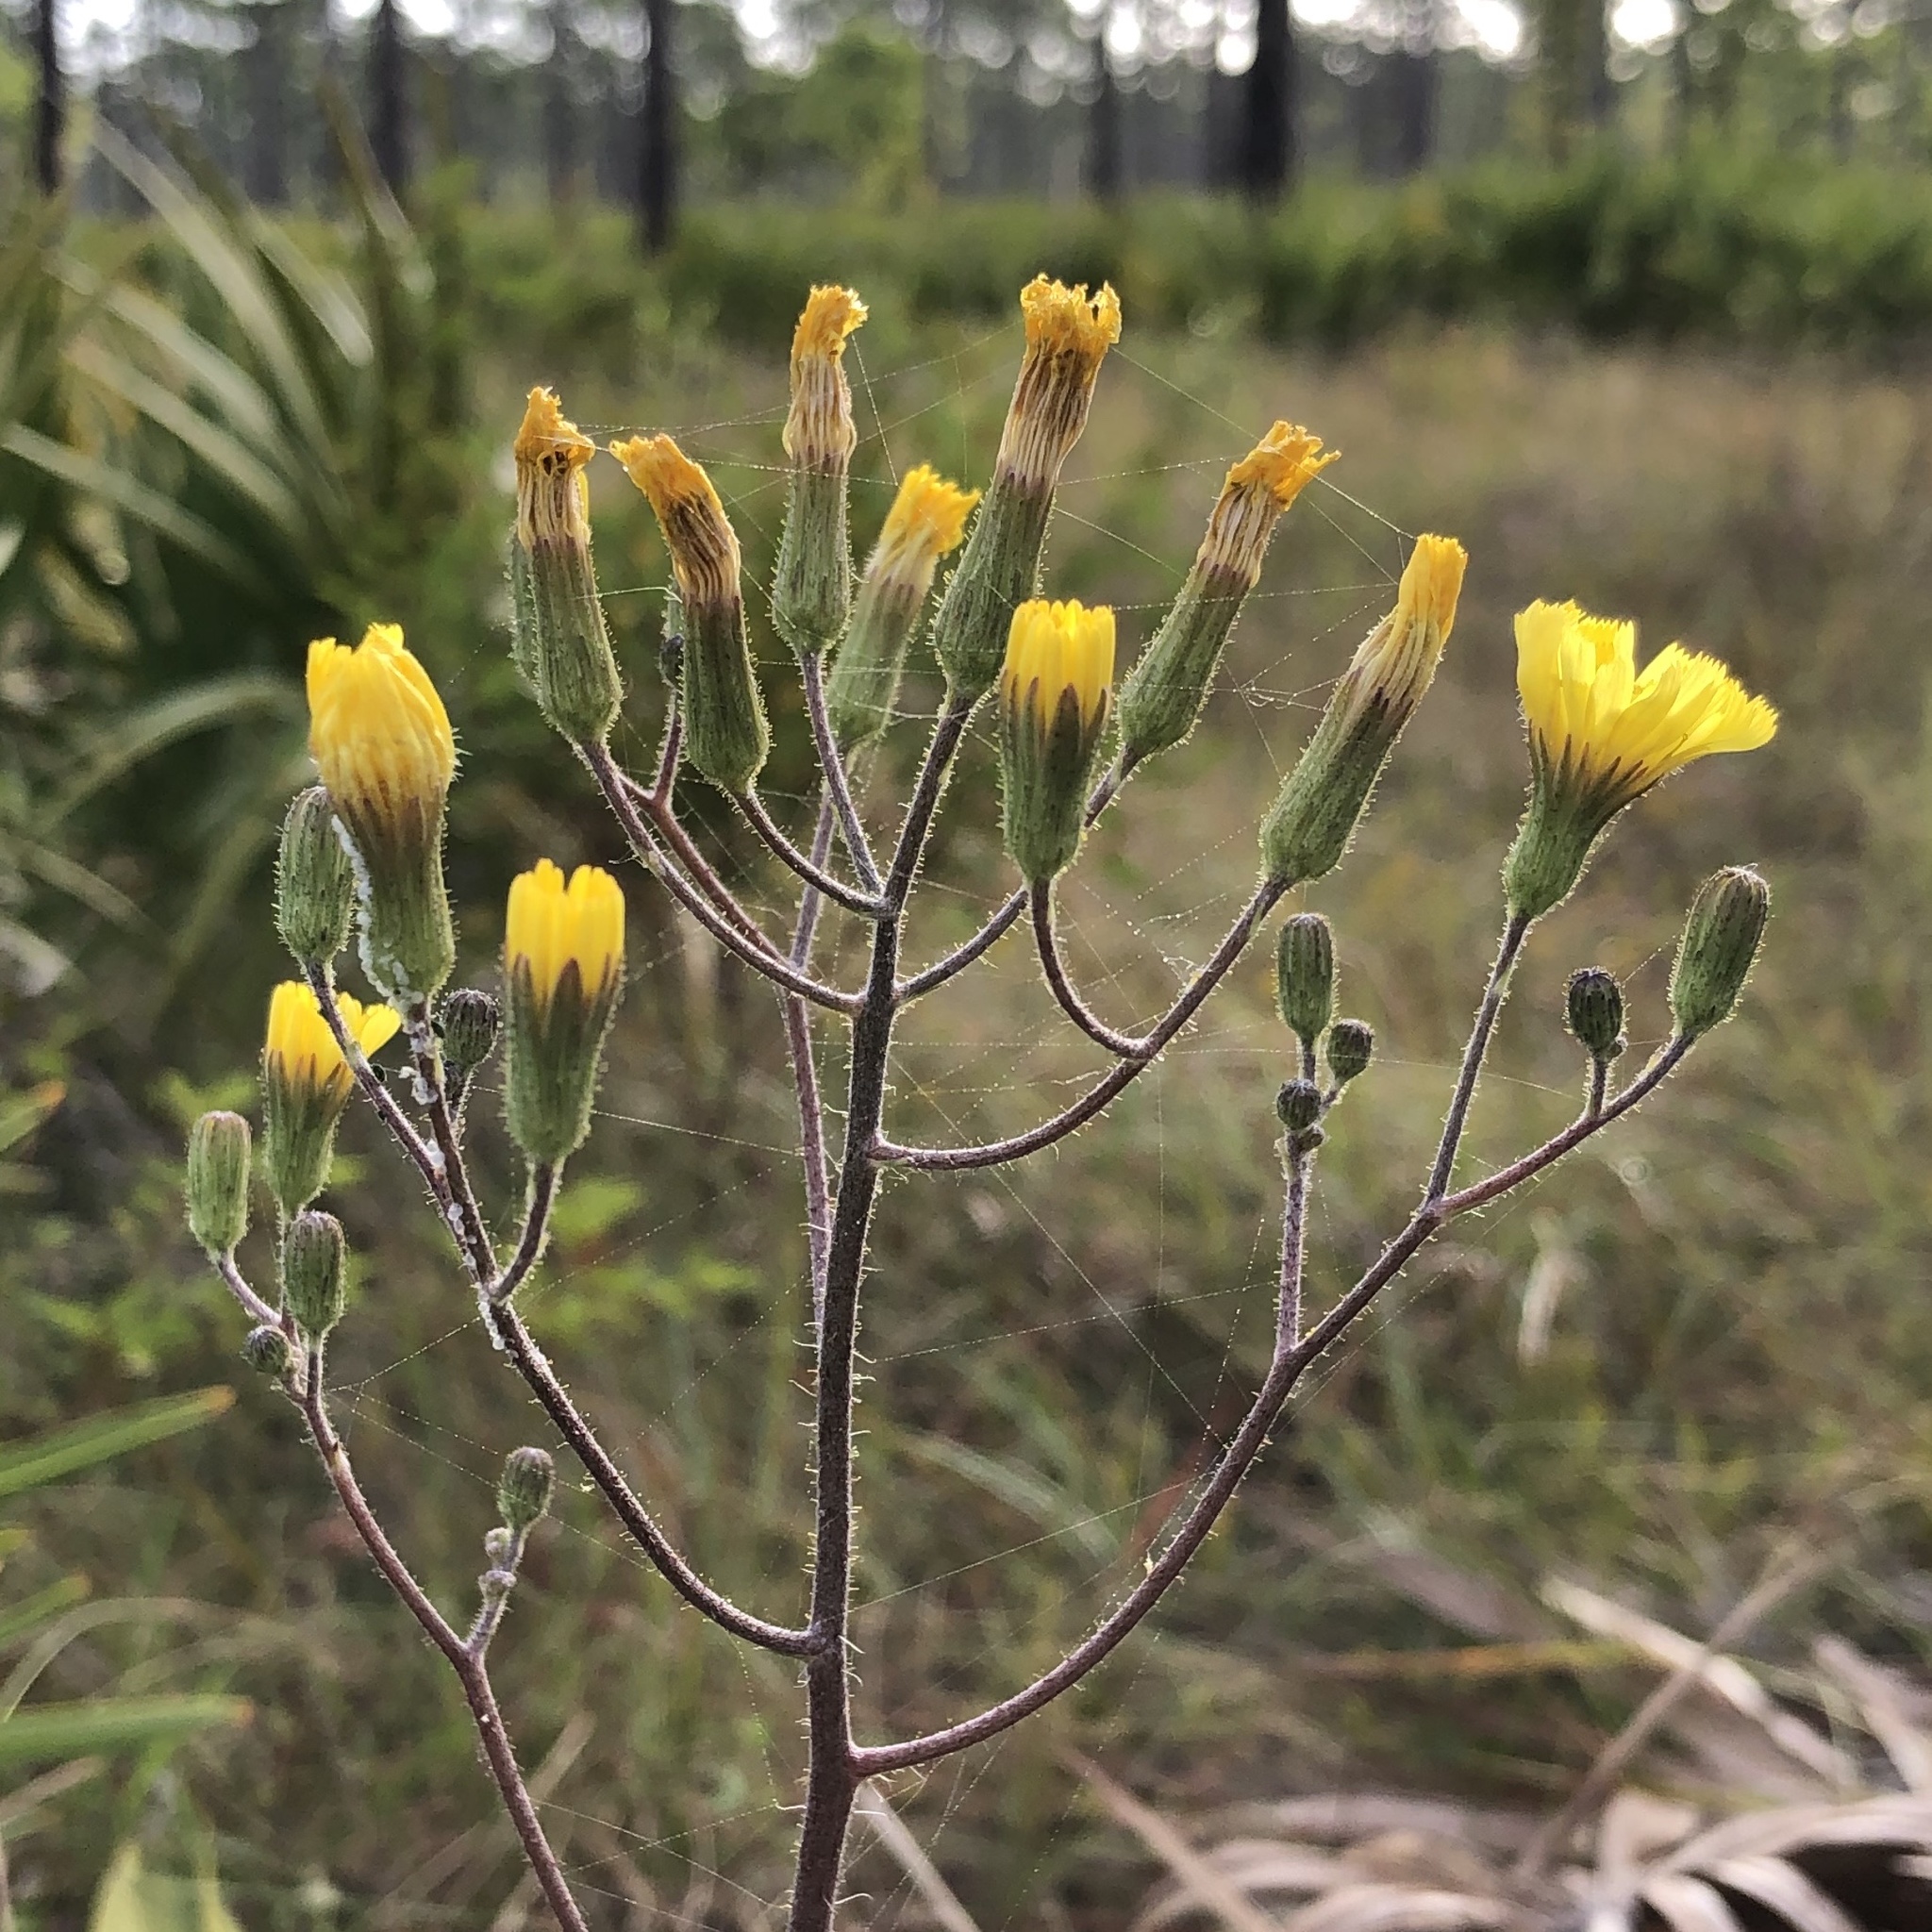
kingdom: Plantae
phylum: Tracheophyta
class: Magnoliopsida
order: Asterales
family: Asteraceae
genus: Hieracium
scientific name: Hieracium megacephalum
